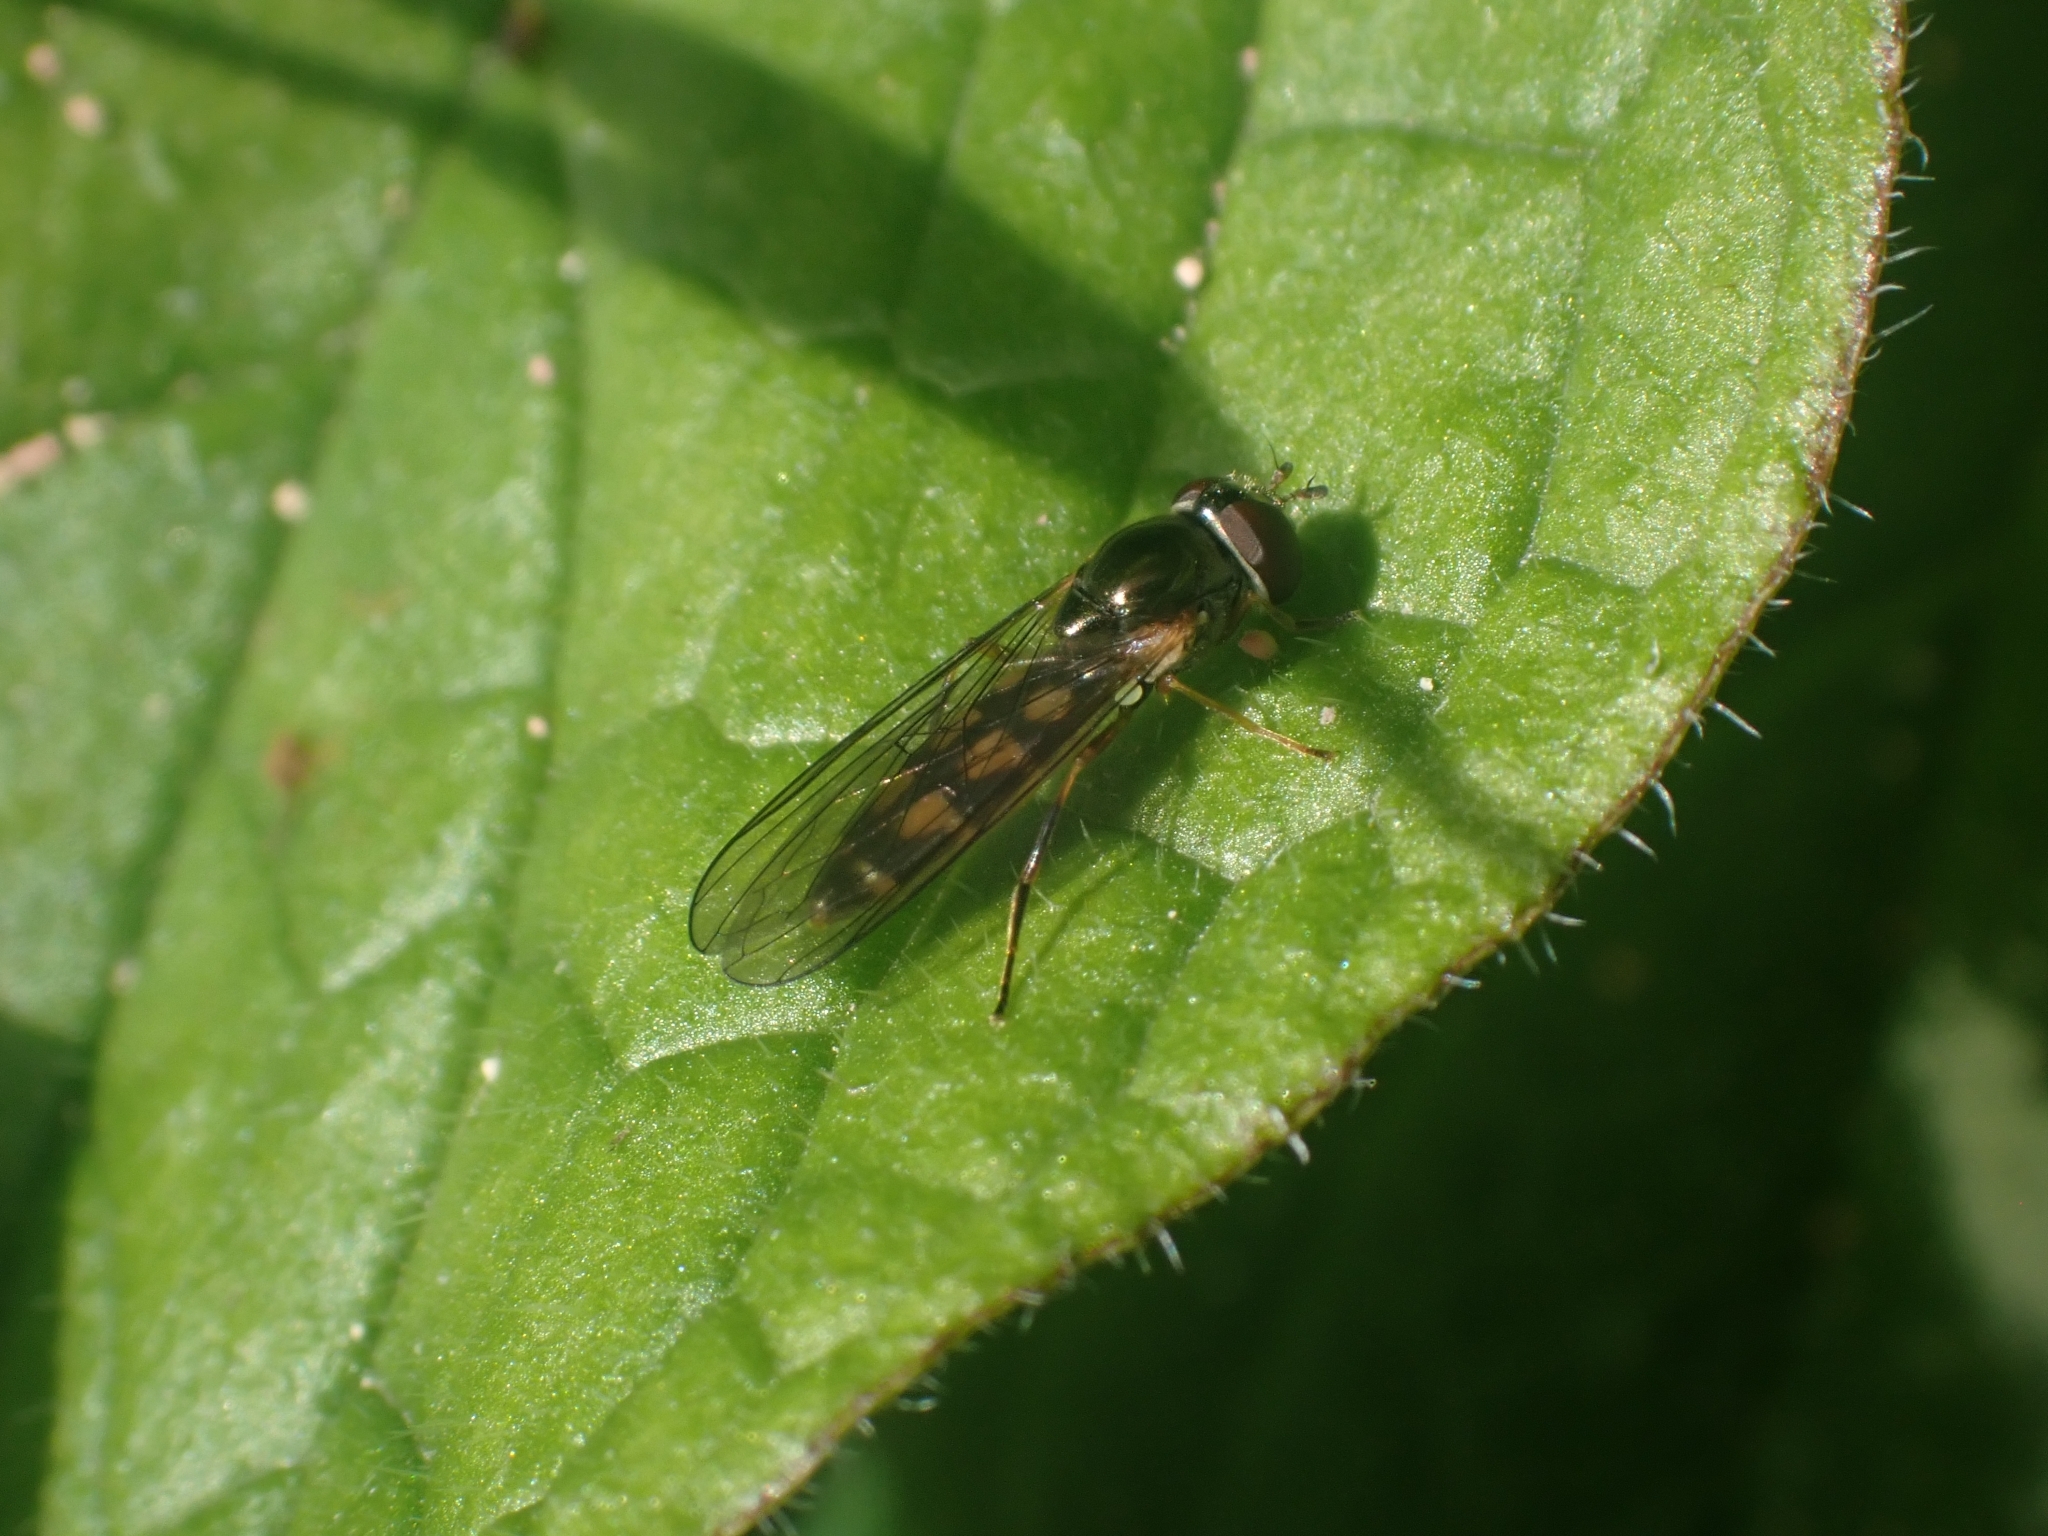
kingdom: Animalia
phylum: Arthropoda
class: Insecta
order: Diptera
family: Syrphidae
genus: Melanostoma
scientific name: Melanostoma
